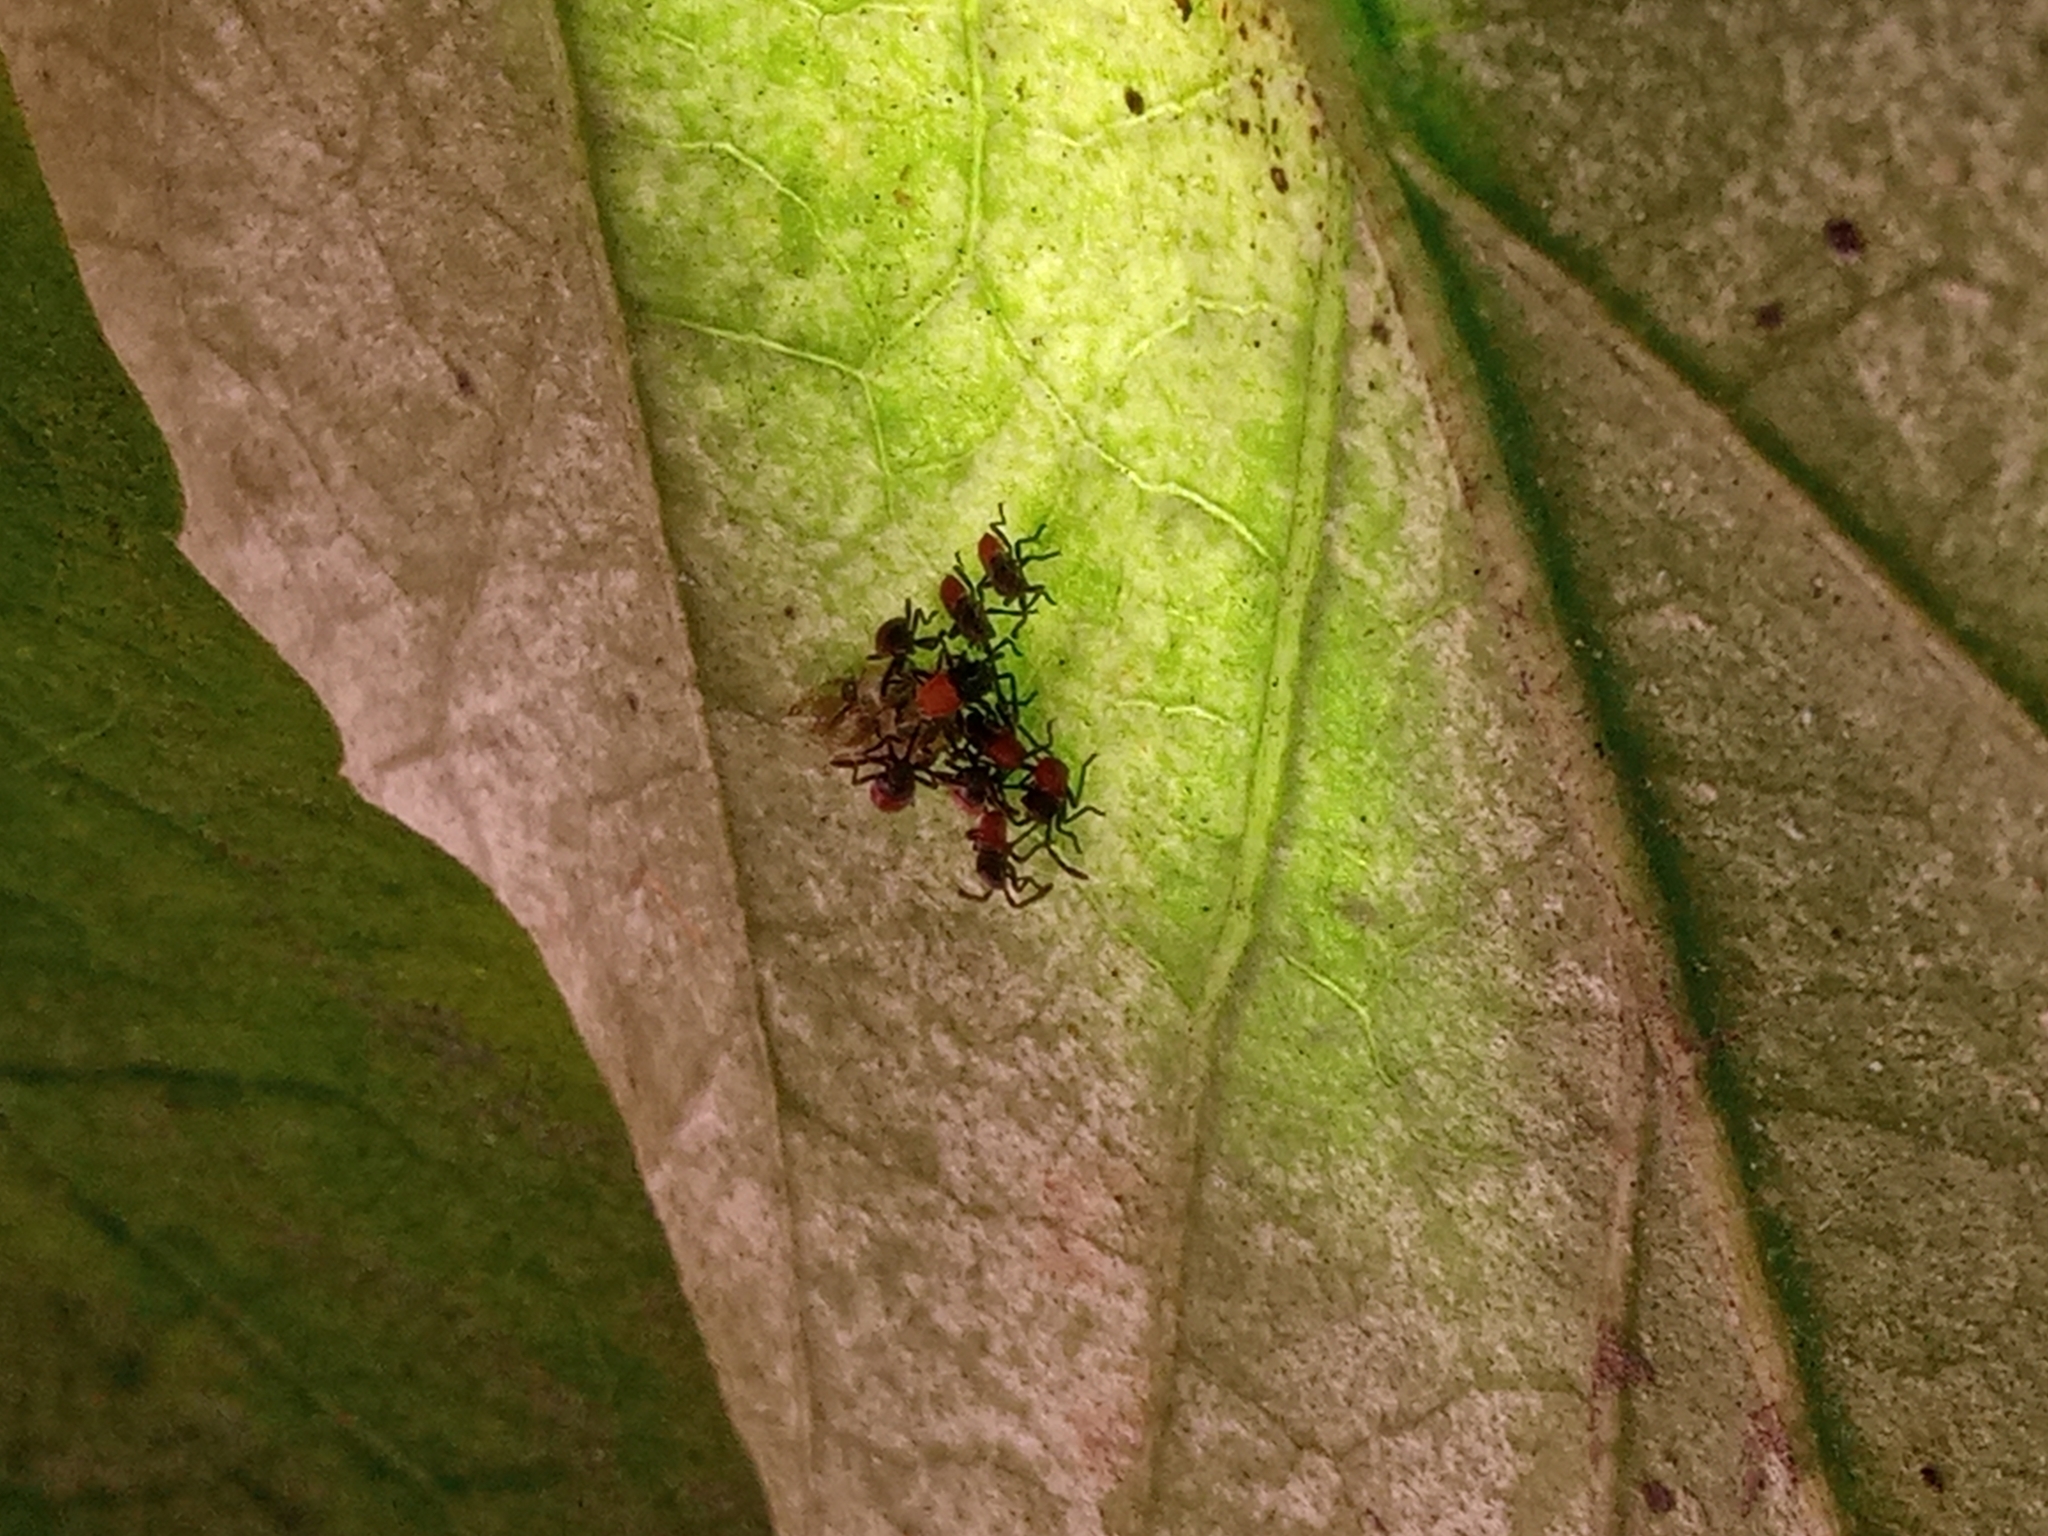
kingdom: Animalia
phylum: Arthropoda
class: Insecta
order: Hemiptera
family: Largidae
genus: Stenomacra
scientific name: Stenomacra marginella
